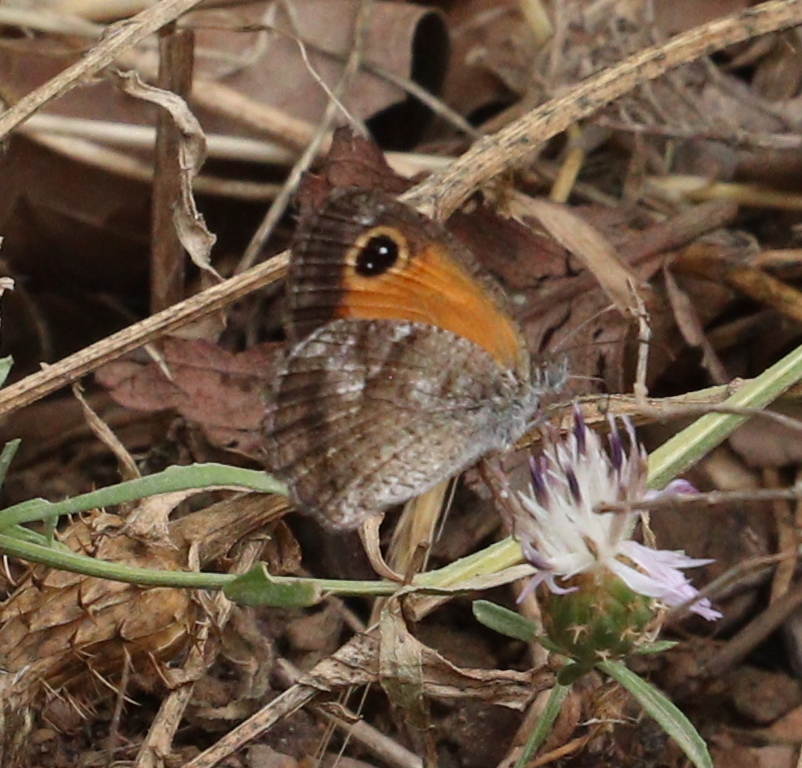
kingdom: Animalia
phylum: Arthropoda
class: Insecta
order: Lepidoptera
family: Nymphalidae
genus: Pyronia
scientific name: Pyronia cecilia
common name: Southern gatekeeper
